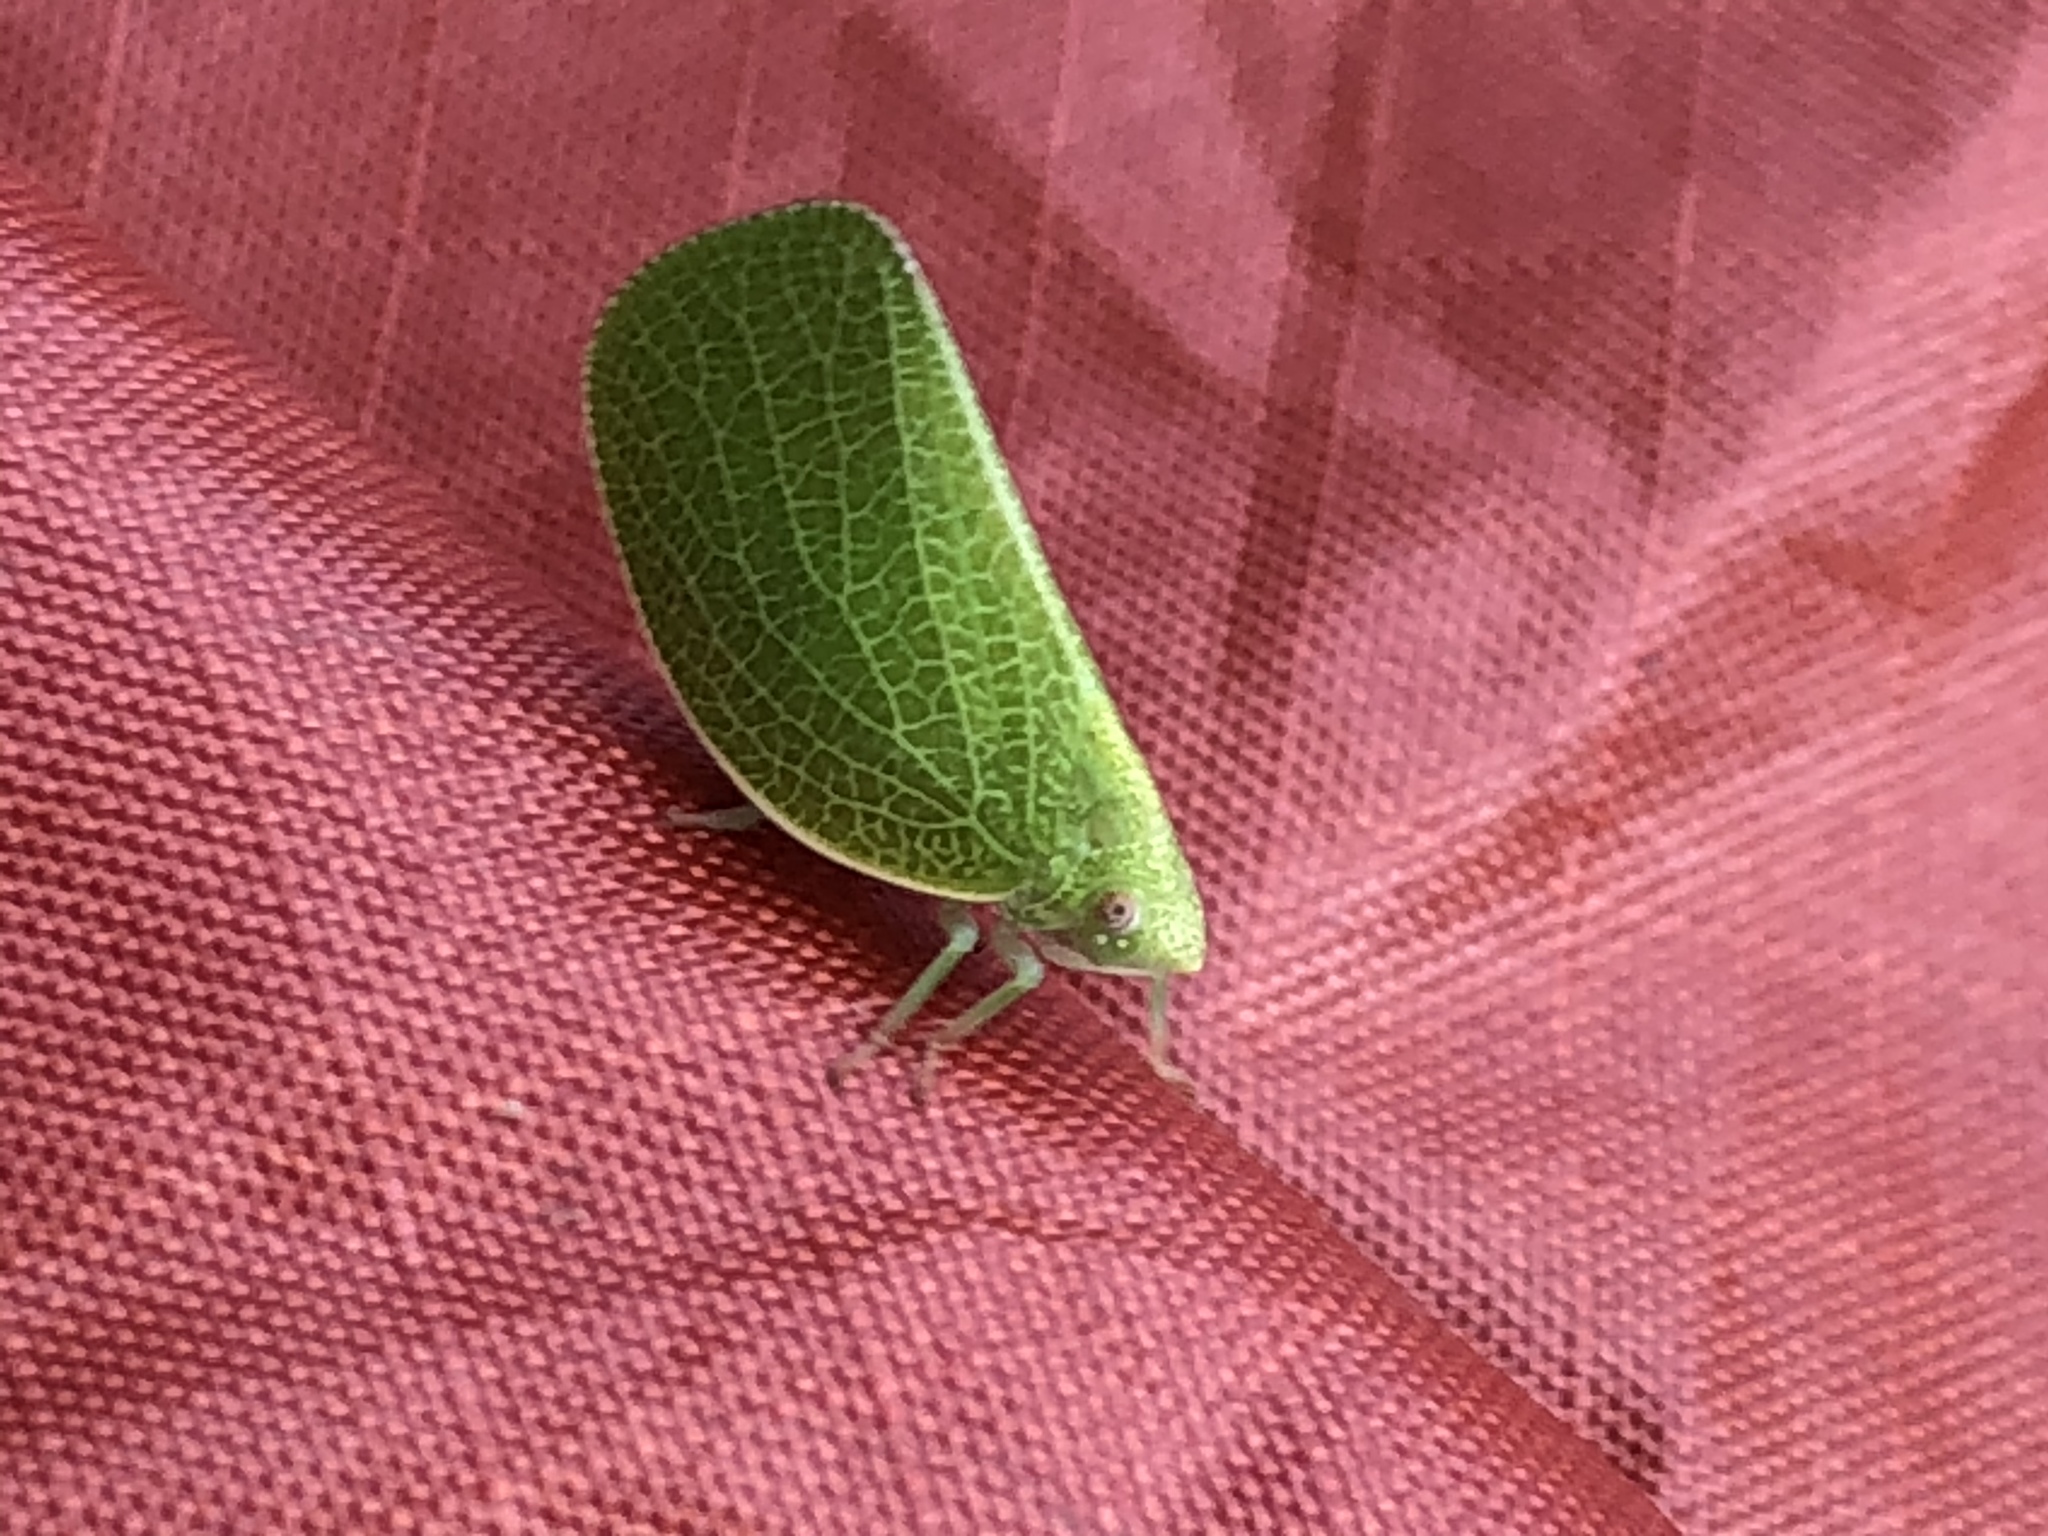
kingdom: Animalia
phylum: Arthropoda
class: Insecta
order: Hemiptera
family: Acanaloniidae
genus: Acanalonia
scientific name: Acanalonia conica
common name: Green cone-headed planthopper
